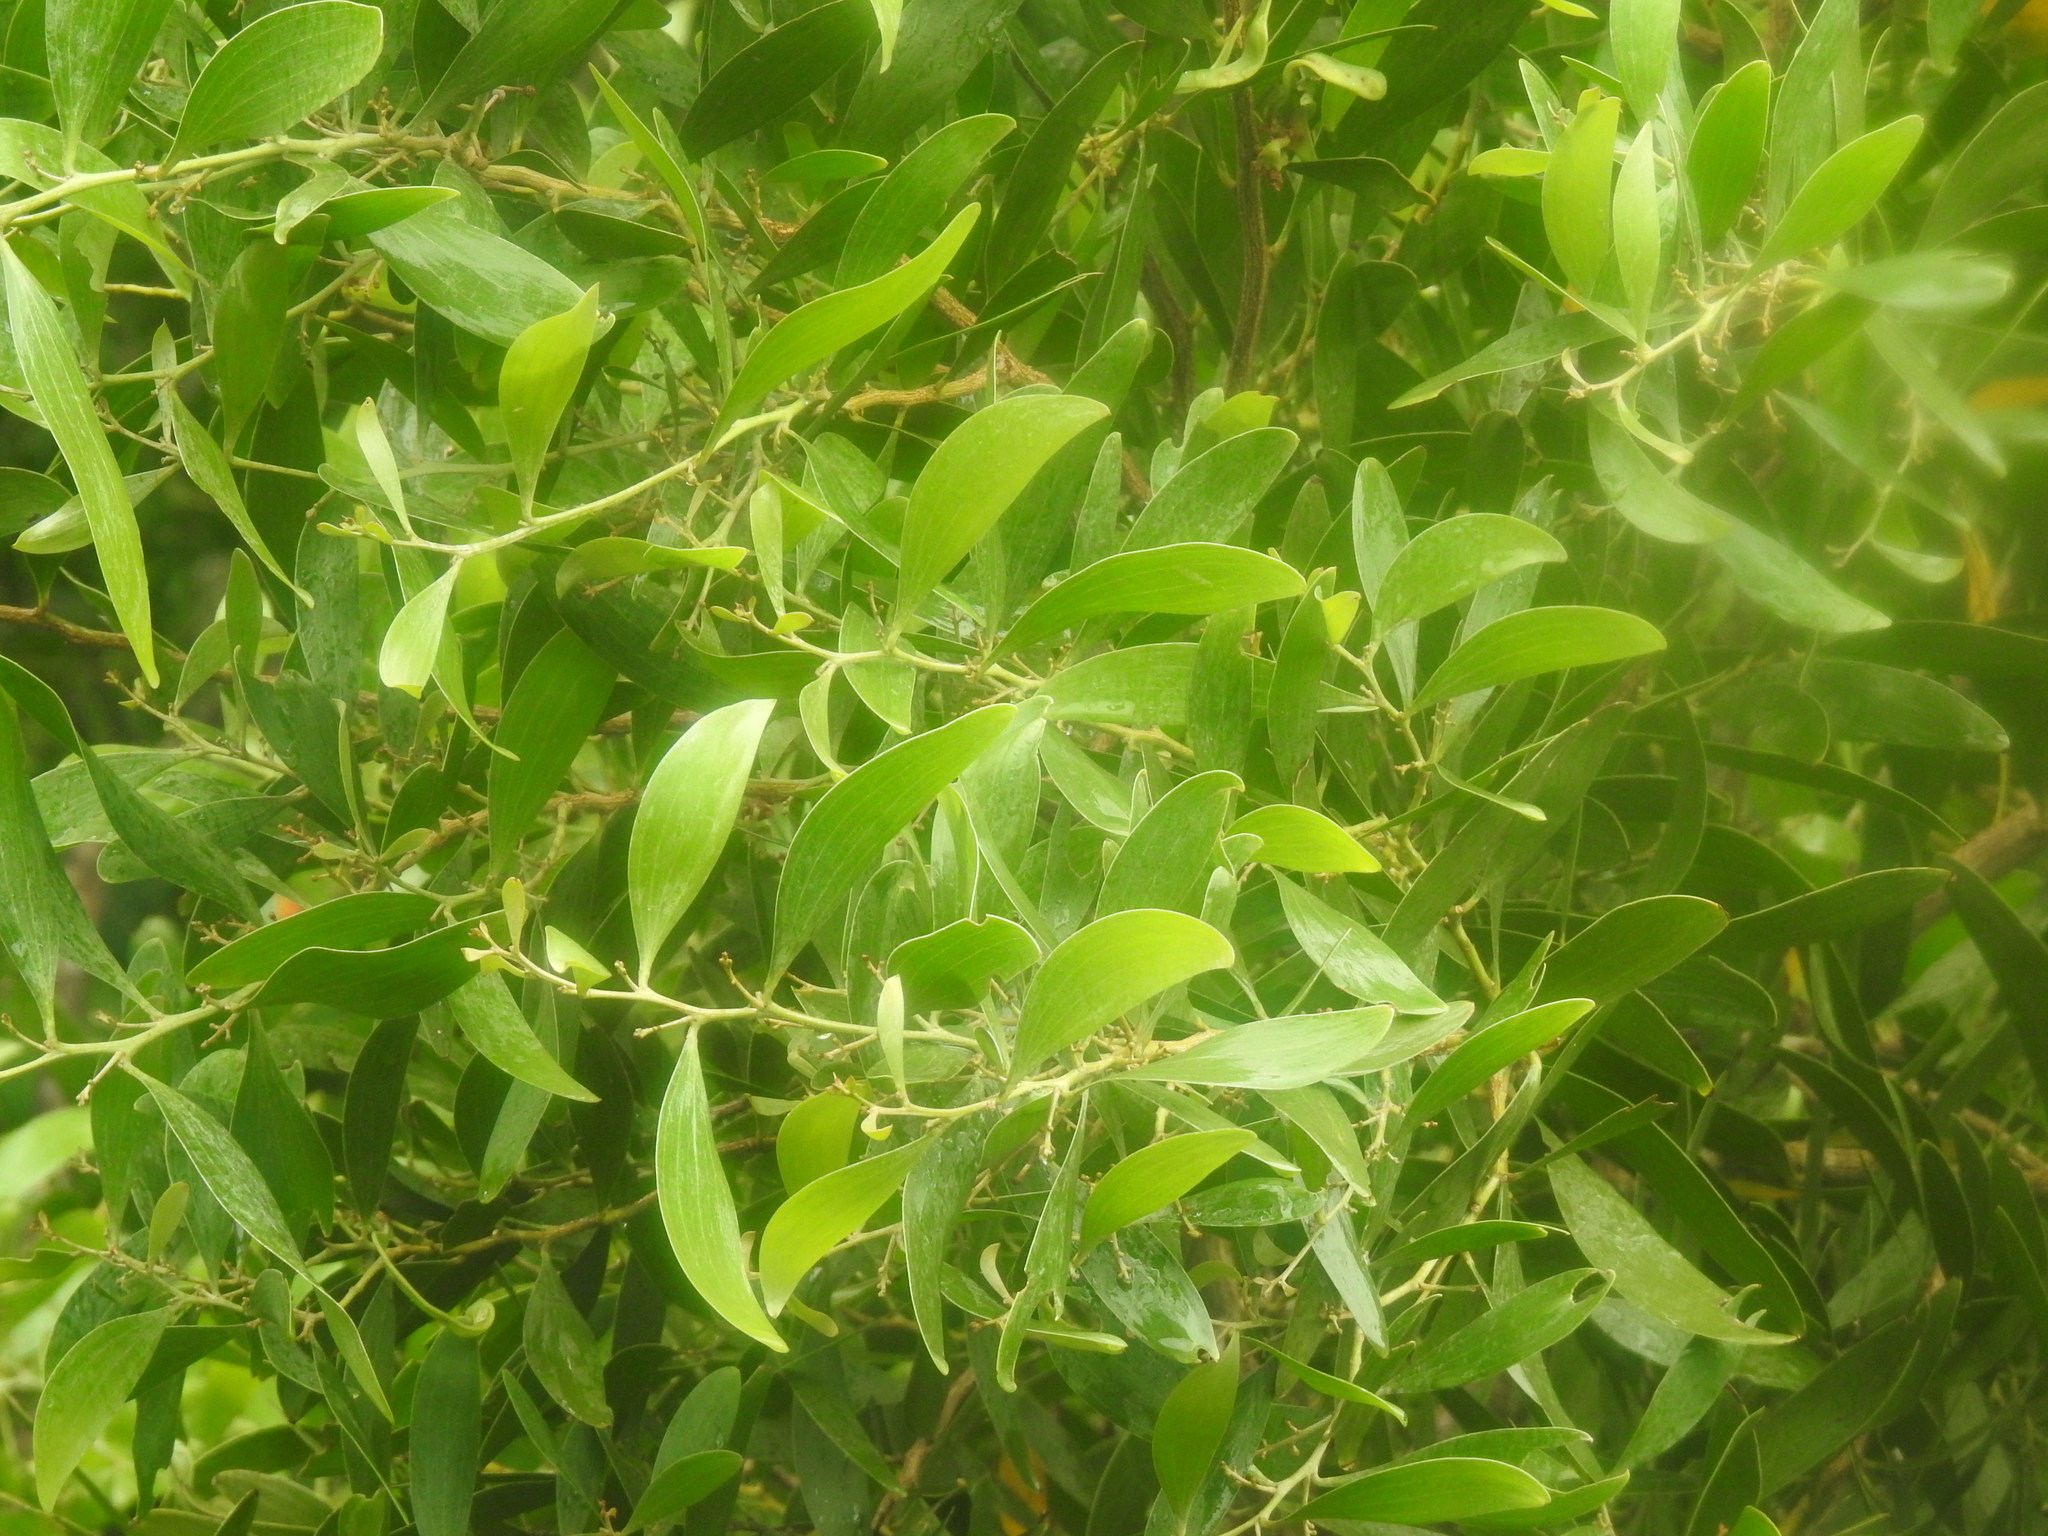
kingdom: Plantae
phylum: Tracheophyta
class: Magnoliopsida
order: Fabales
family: Fabaceae
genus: Acacia
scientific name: Acacia melanoxylon
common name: Blackwood
